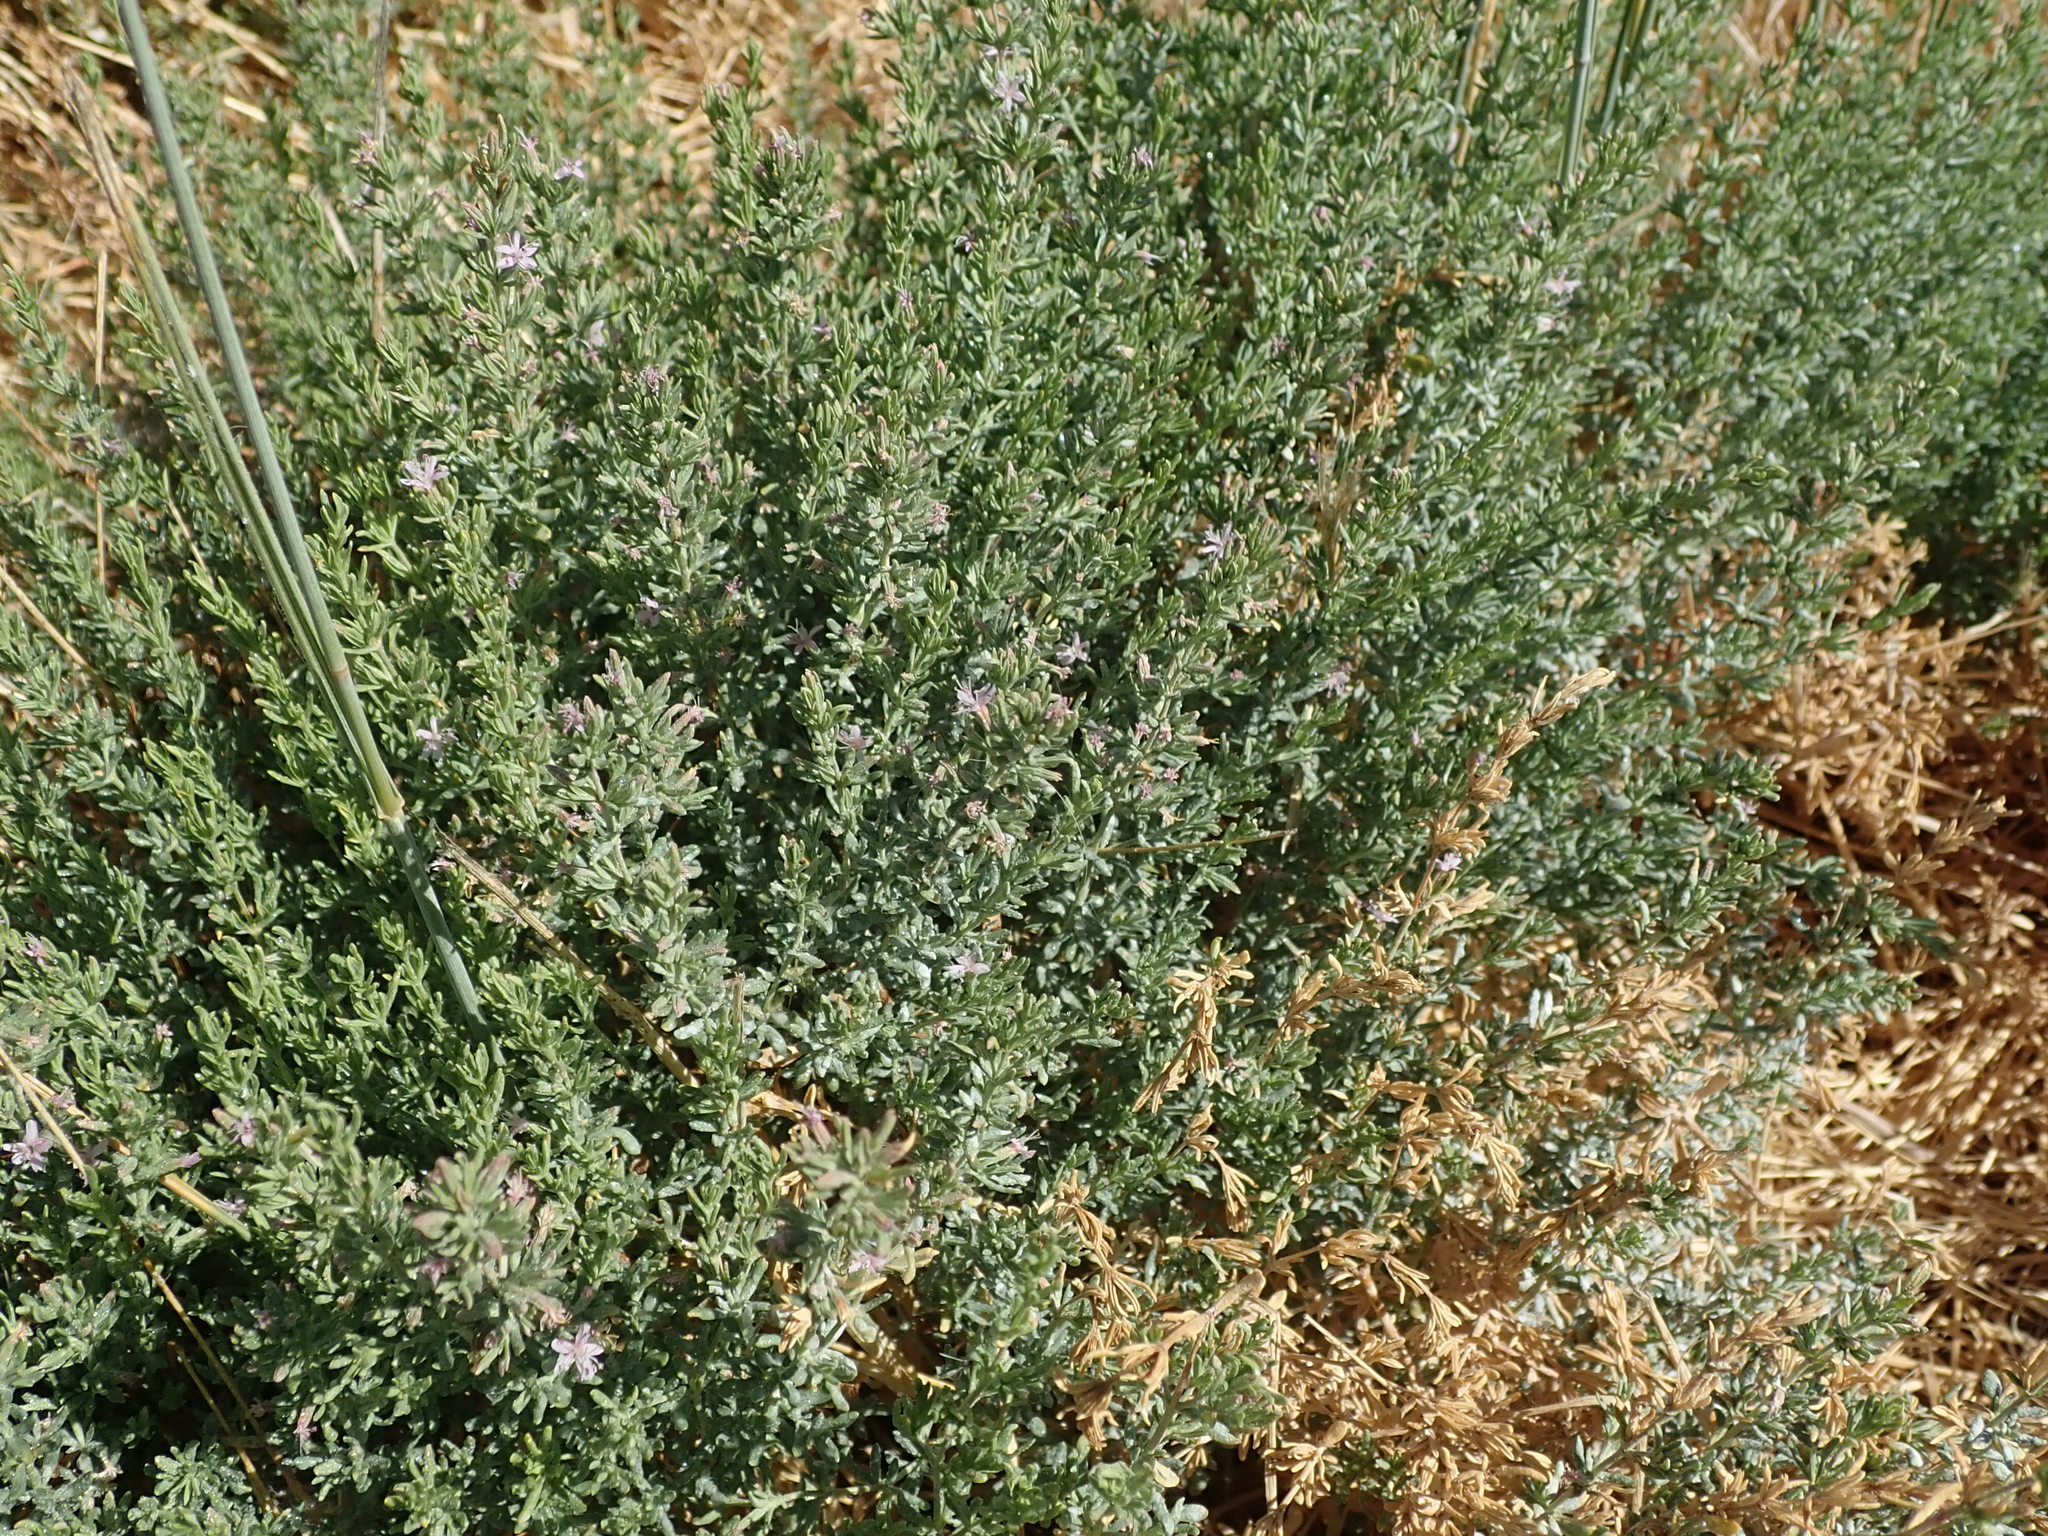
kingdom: Plantae
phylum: Tracheophyta
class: Magnoliopsida
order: Caryophyllales
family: Frankeniaceae
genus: Frankenia
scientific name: Frankenia salina
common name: Alkali seaheath
